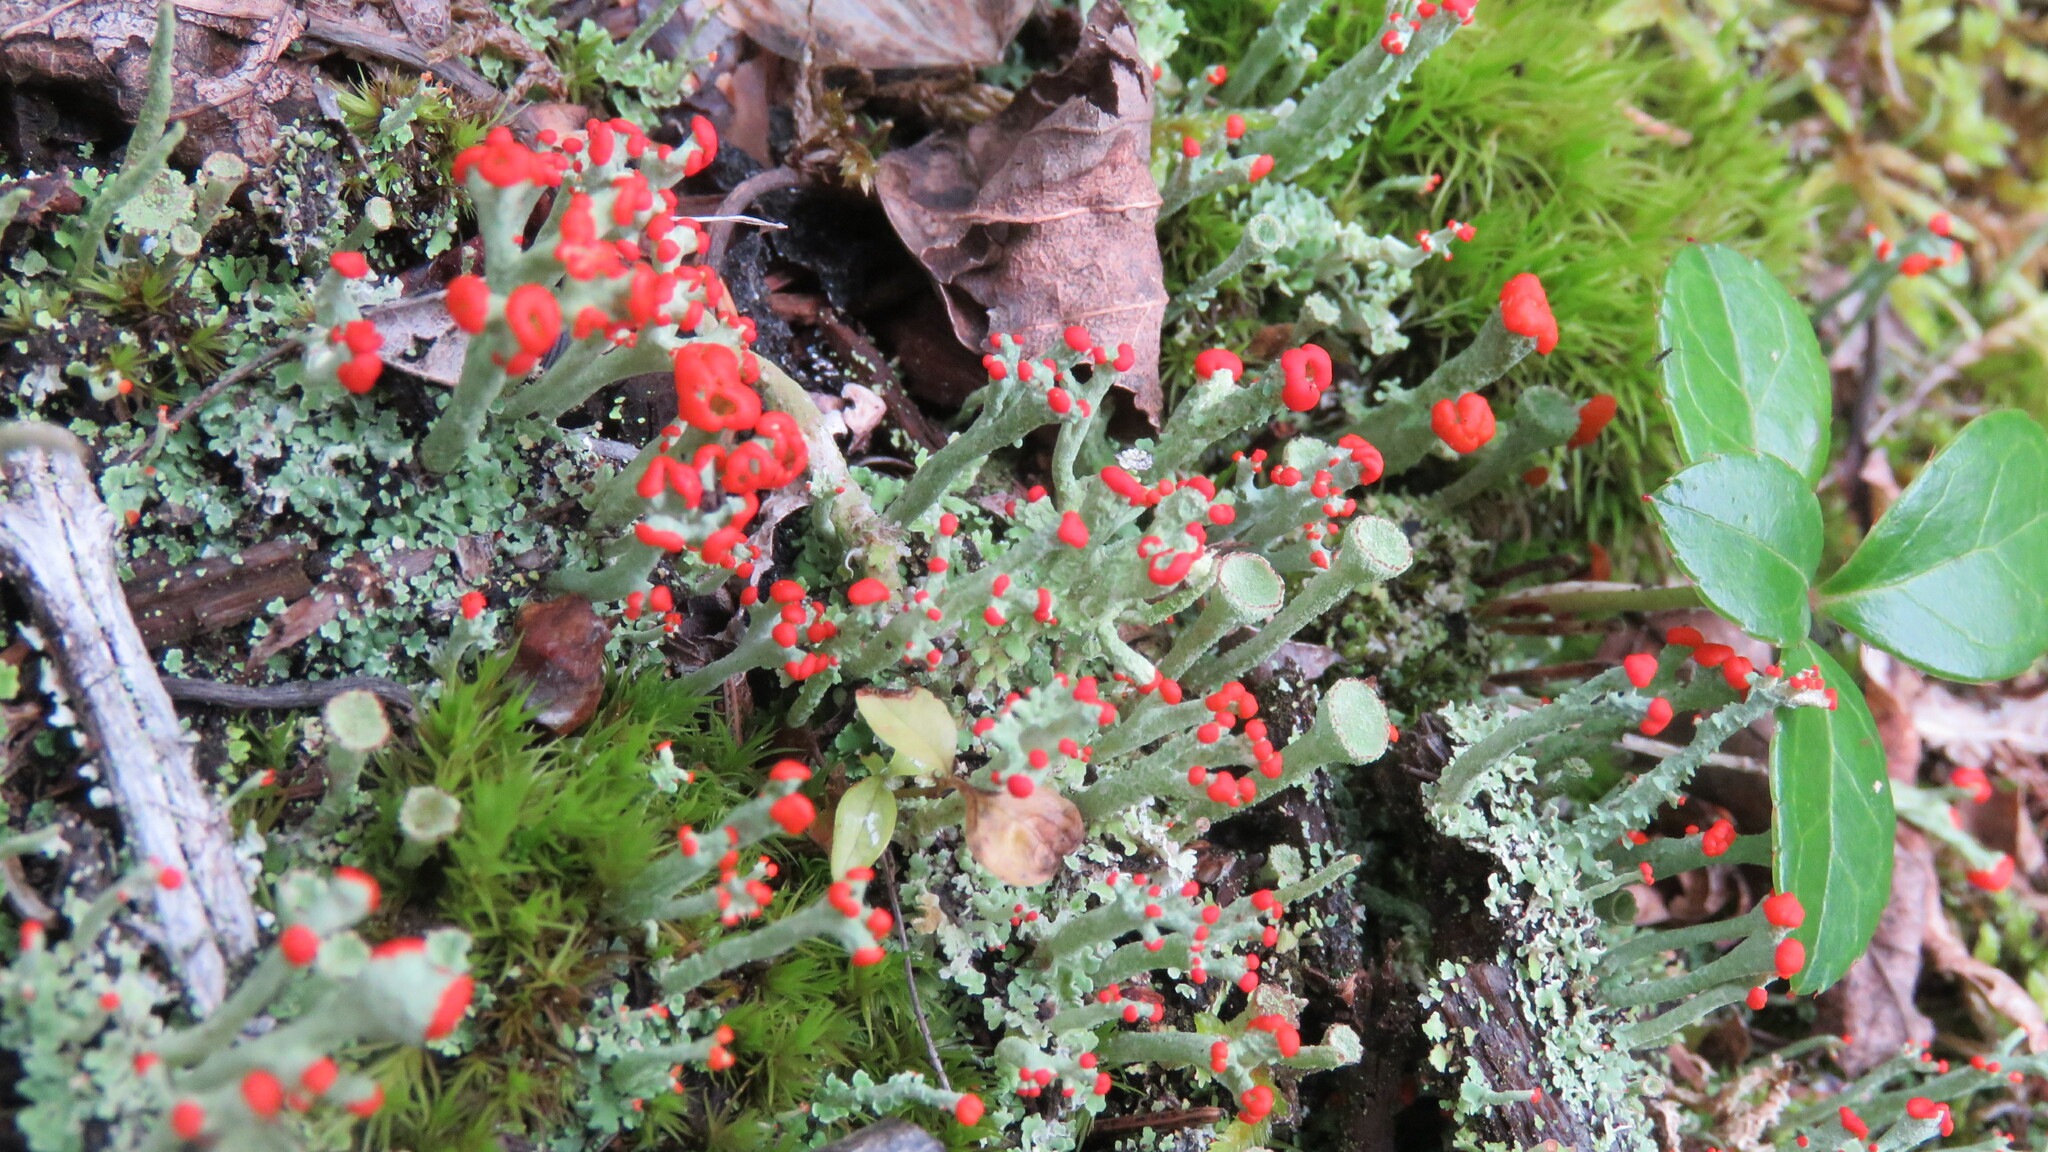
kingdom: Fungi
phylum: Ascomycota
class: Lecanoromycetes
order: Lecanorales
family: Cladoniaceae
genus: Cladonia
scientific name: Cladonia cristatella
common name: British soldier lichen
